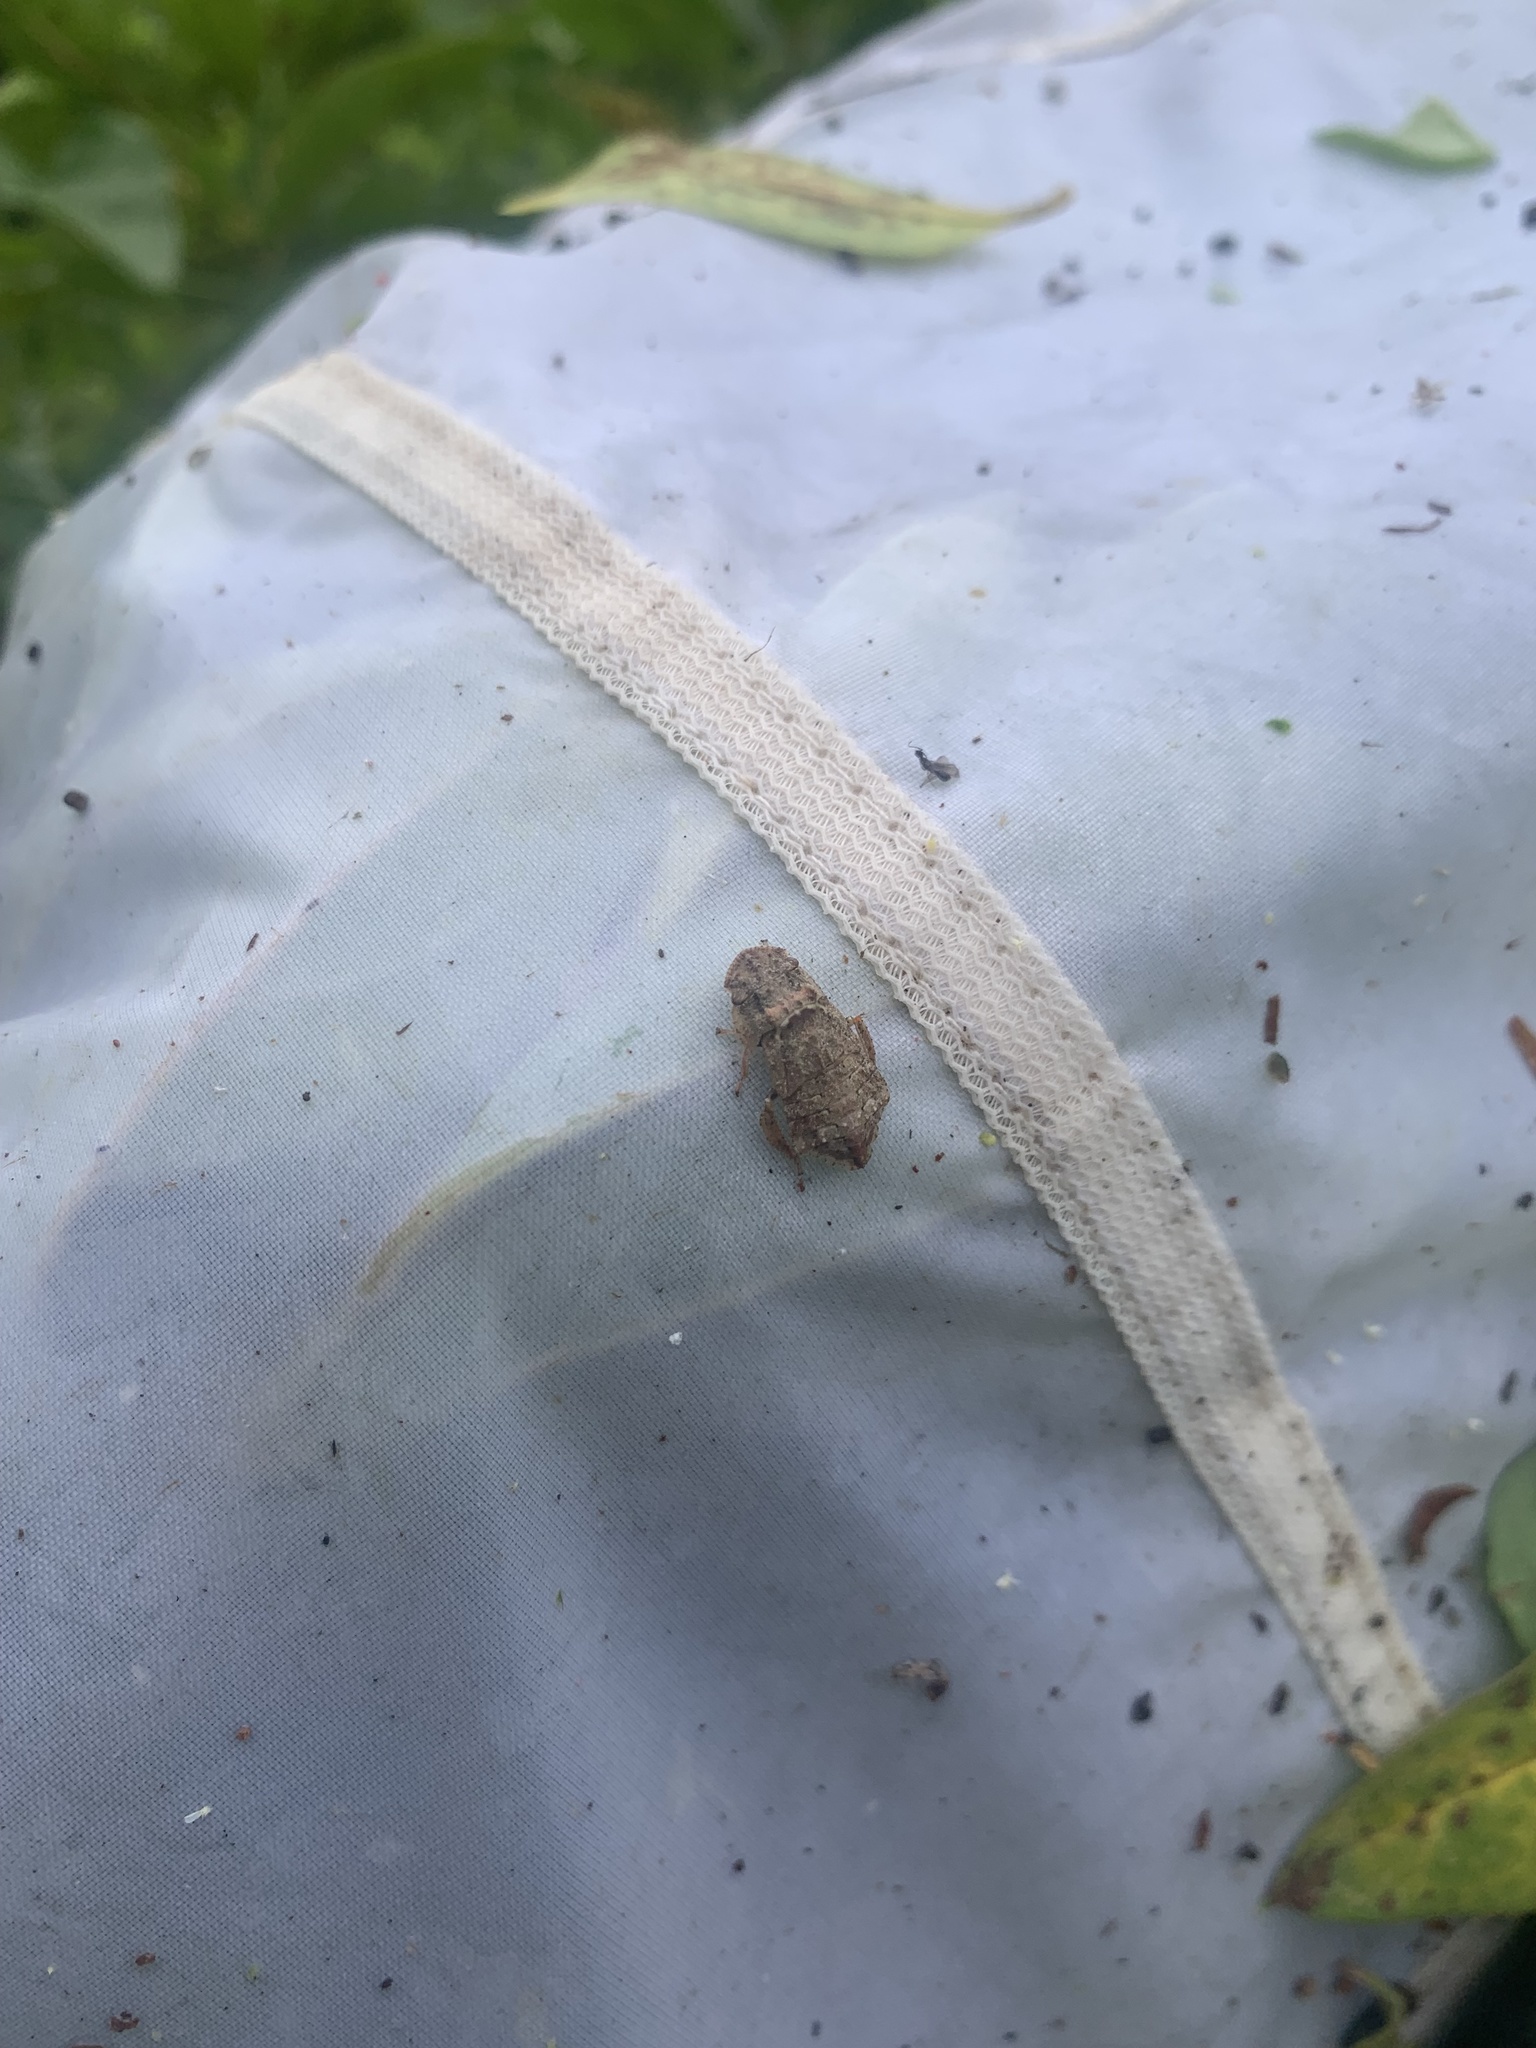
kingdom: Animalia
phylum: Arthropoda
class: Insecta
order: Hemiptera
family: Cicadellidae
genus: Ledra
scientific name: Ledra auditura
